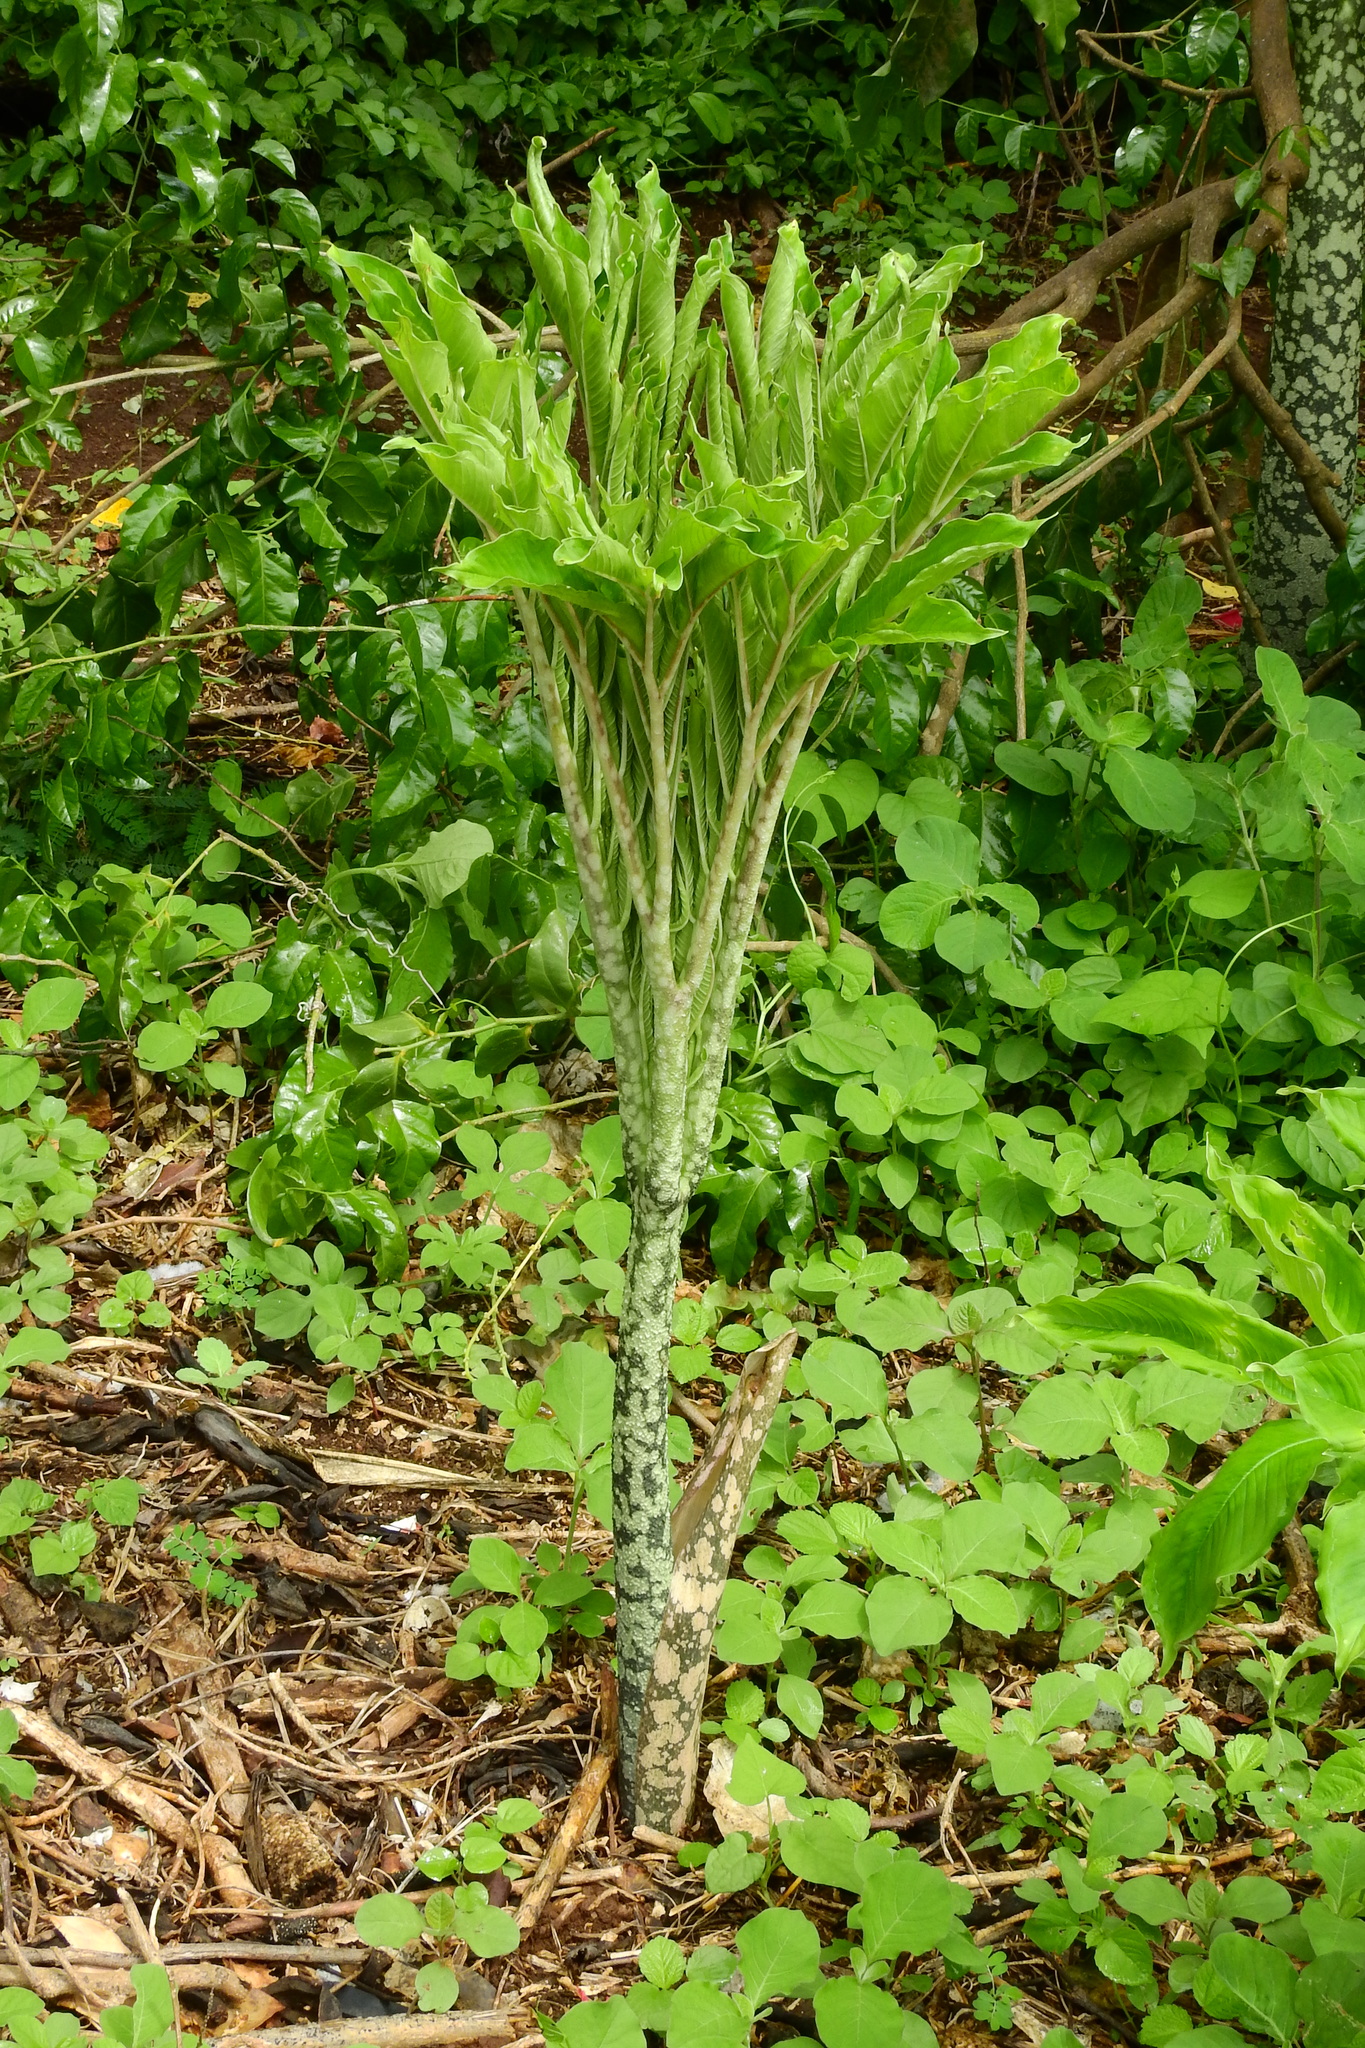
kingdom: Plantae
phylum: Tracheophyta
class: Liliopsida
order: Alismatales
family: Araceae
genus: Amorphophallus
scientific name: Amorphophallus paeoniifolius
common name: Telinga-potato
